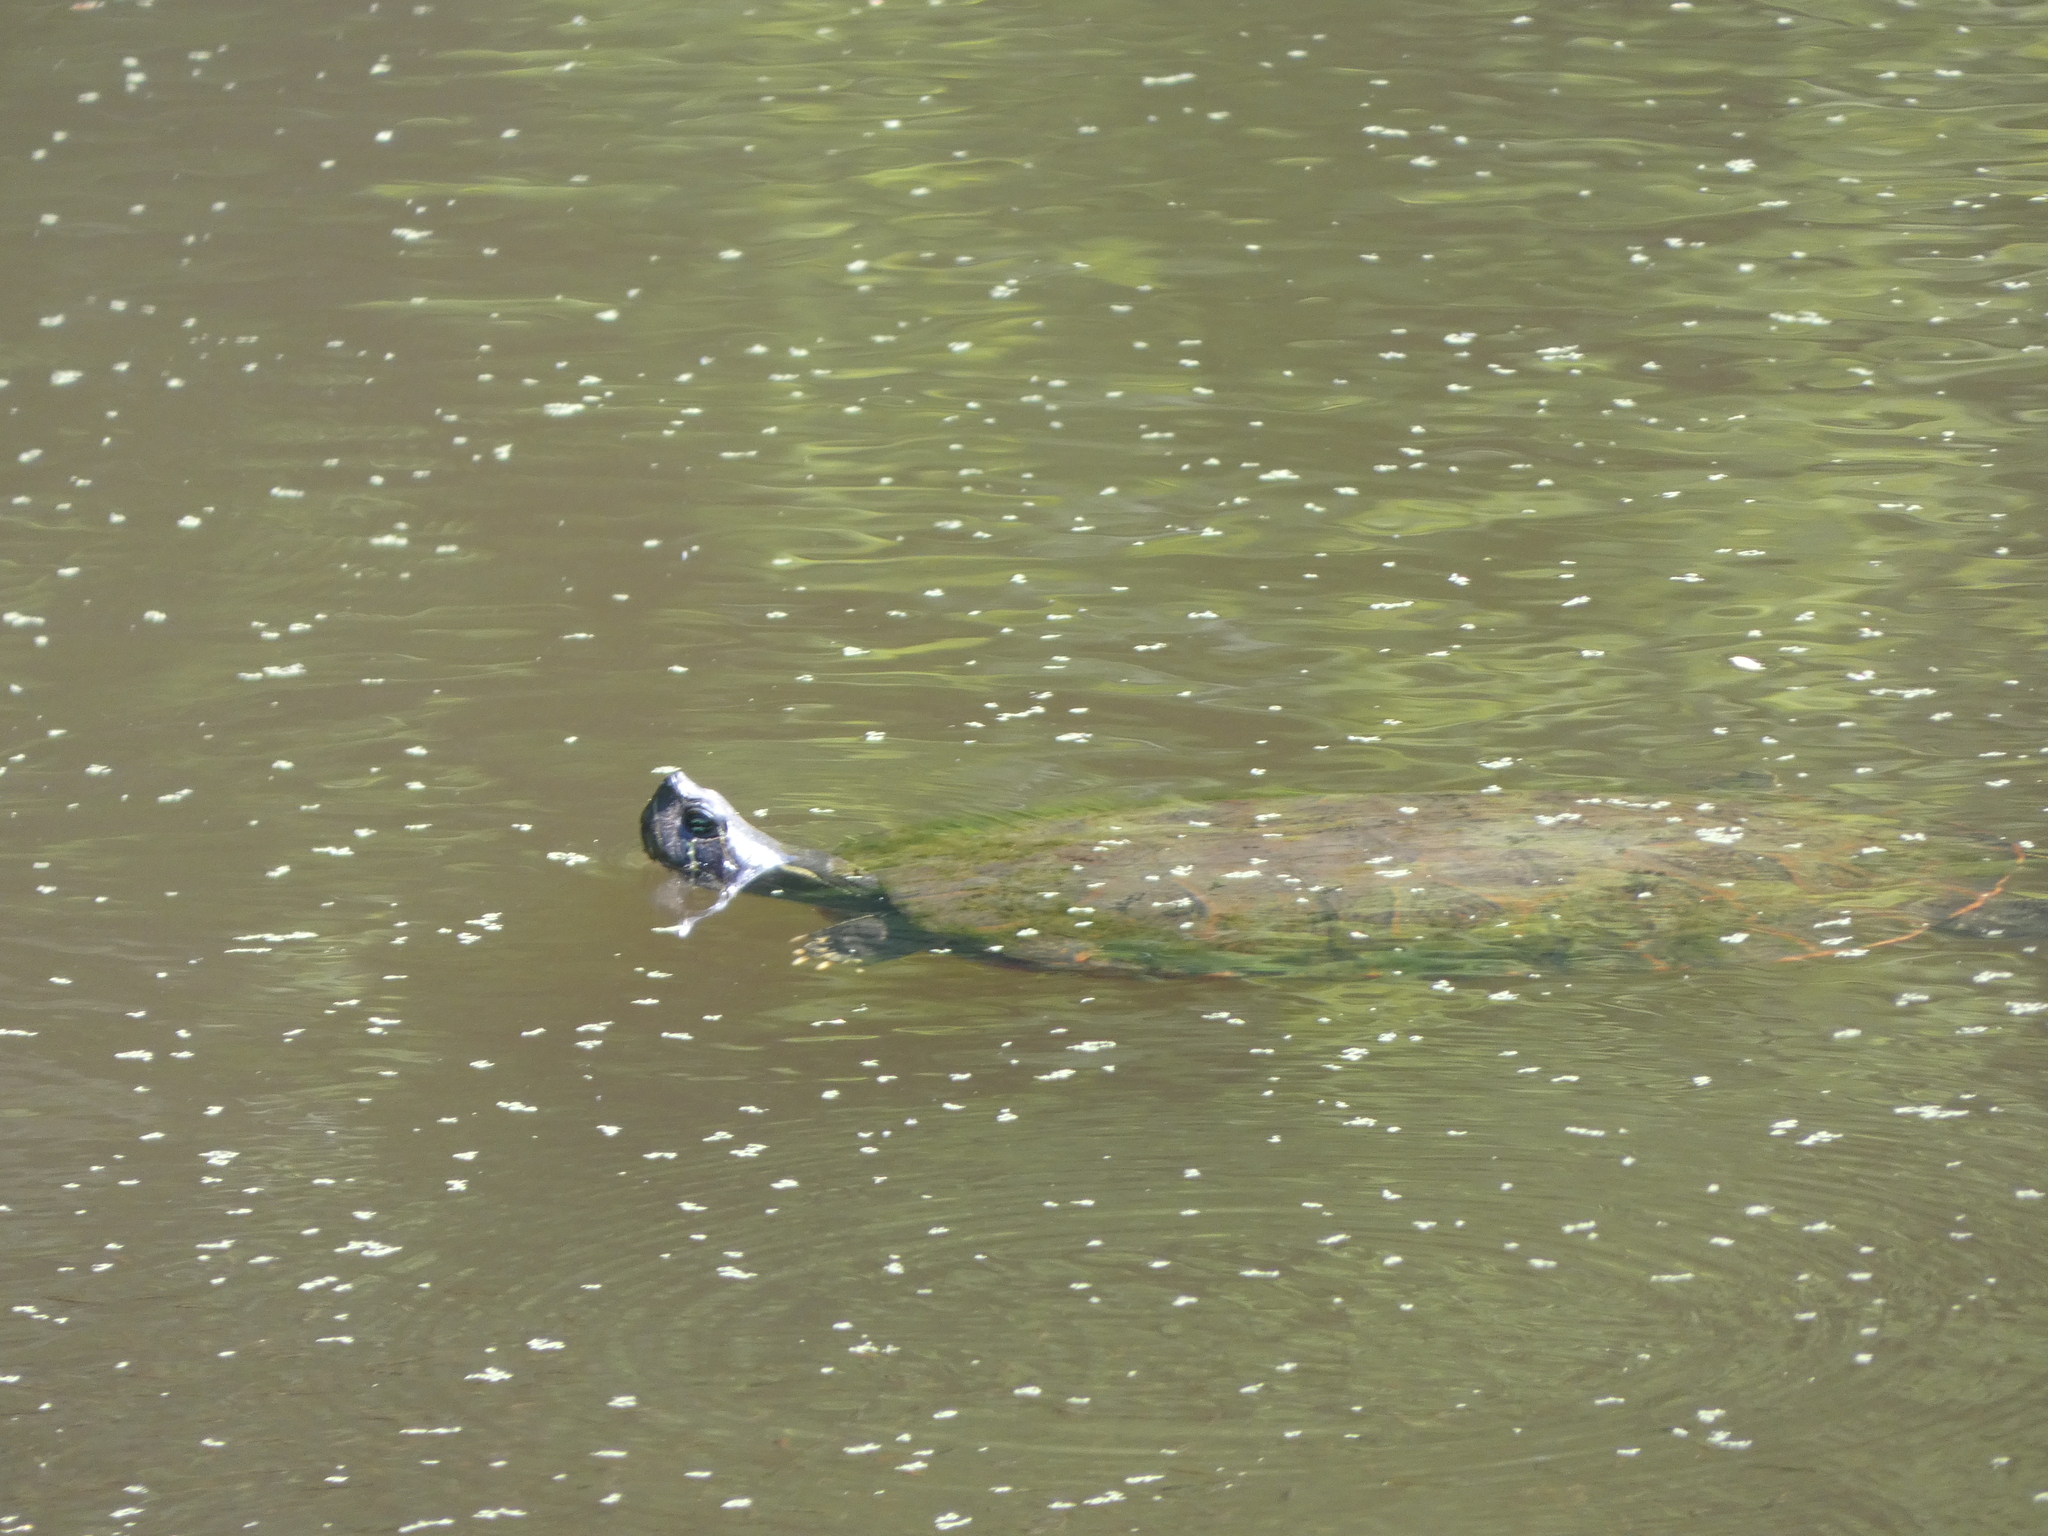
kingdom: Animalia
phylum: Chordata
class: Testudines
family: Emydidae
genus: Pseudemys
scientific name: Pseudemys rubriventris
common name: American red-bellied turtle
